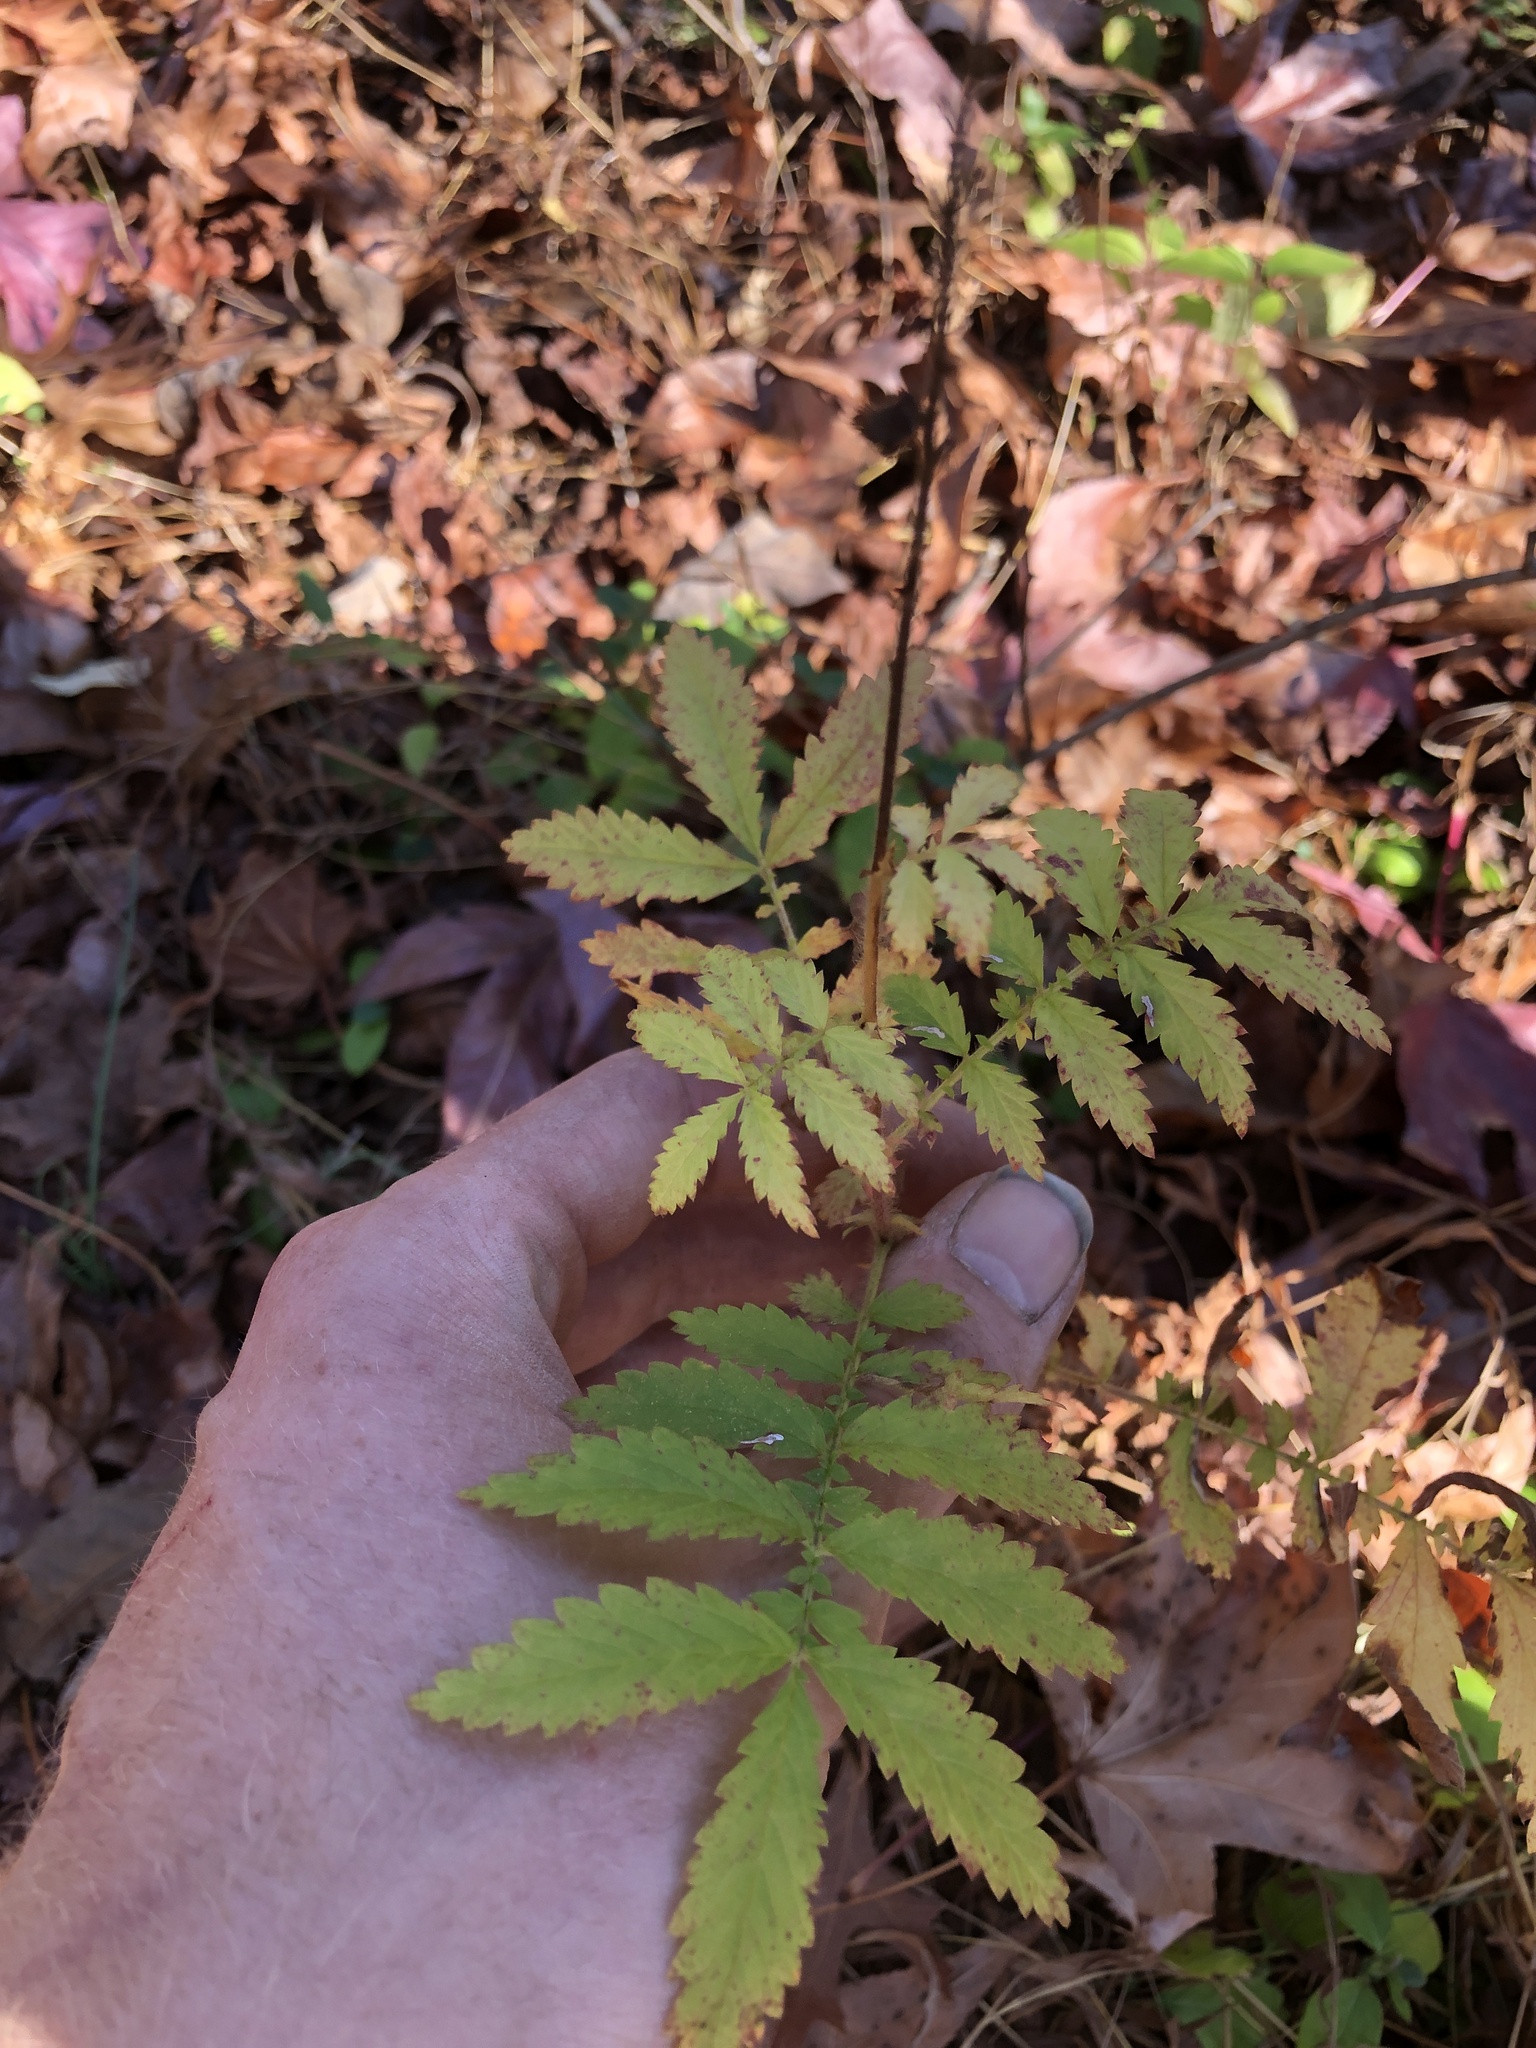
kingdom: Plantae
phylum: Tracheophyta
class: Magnoliopsida
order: Rosales
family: Rosaceae
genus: Agrimonia
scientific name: Agrimonia parviflora
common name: Harvest-lice
